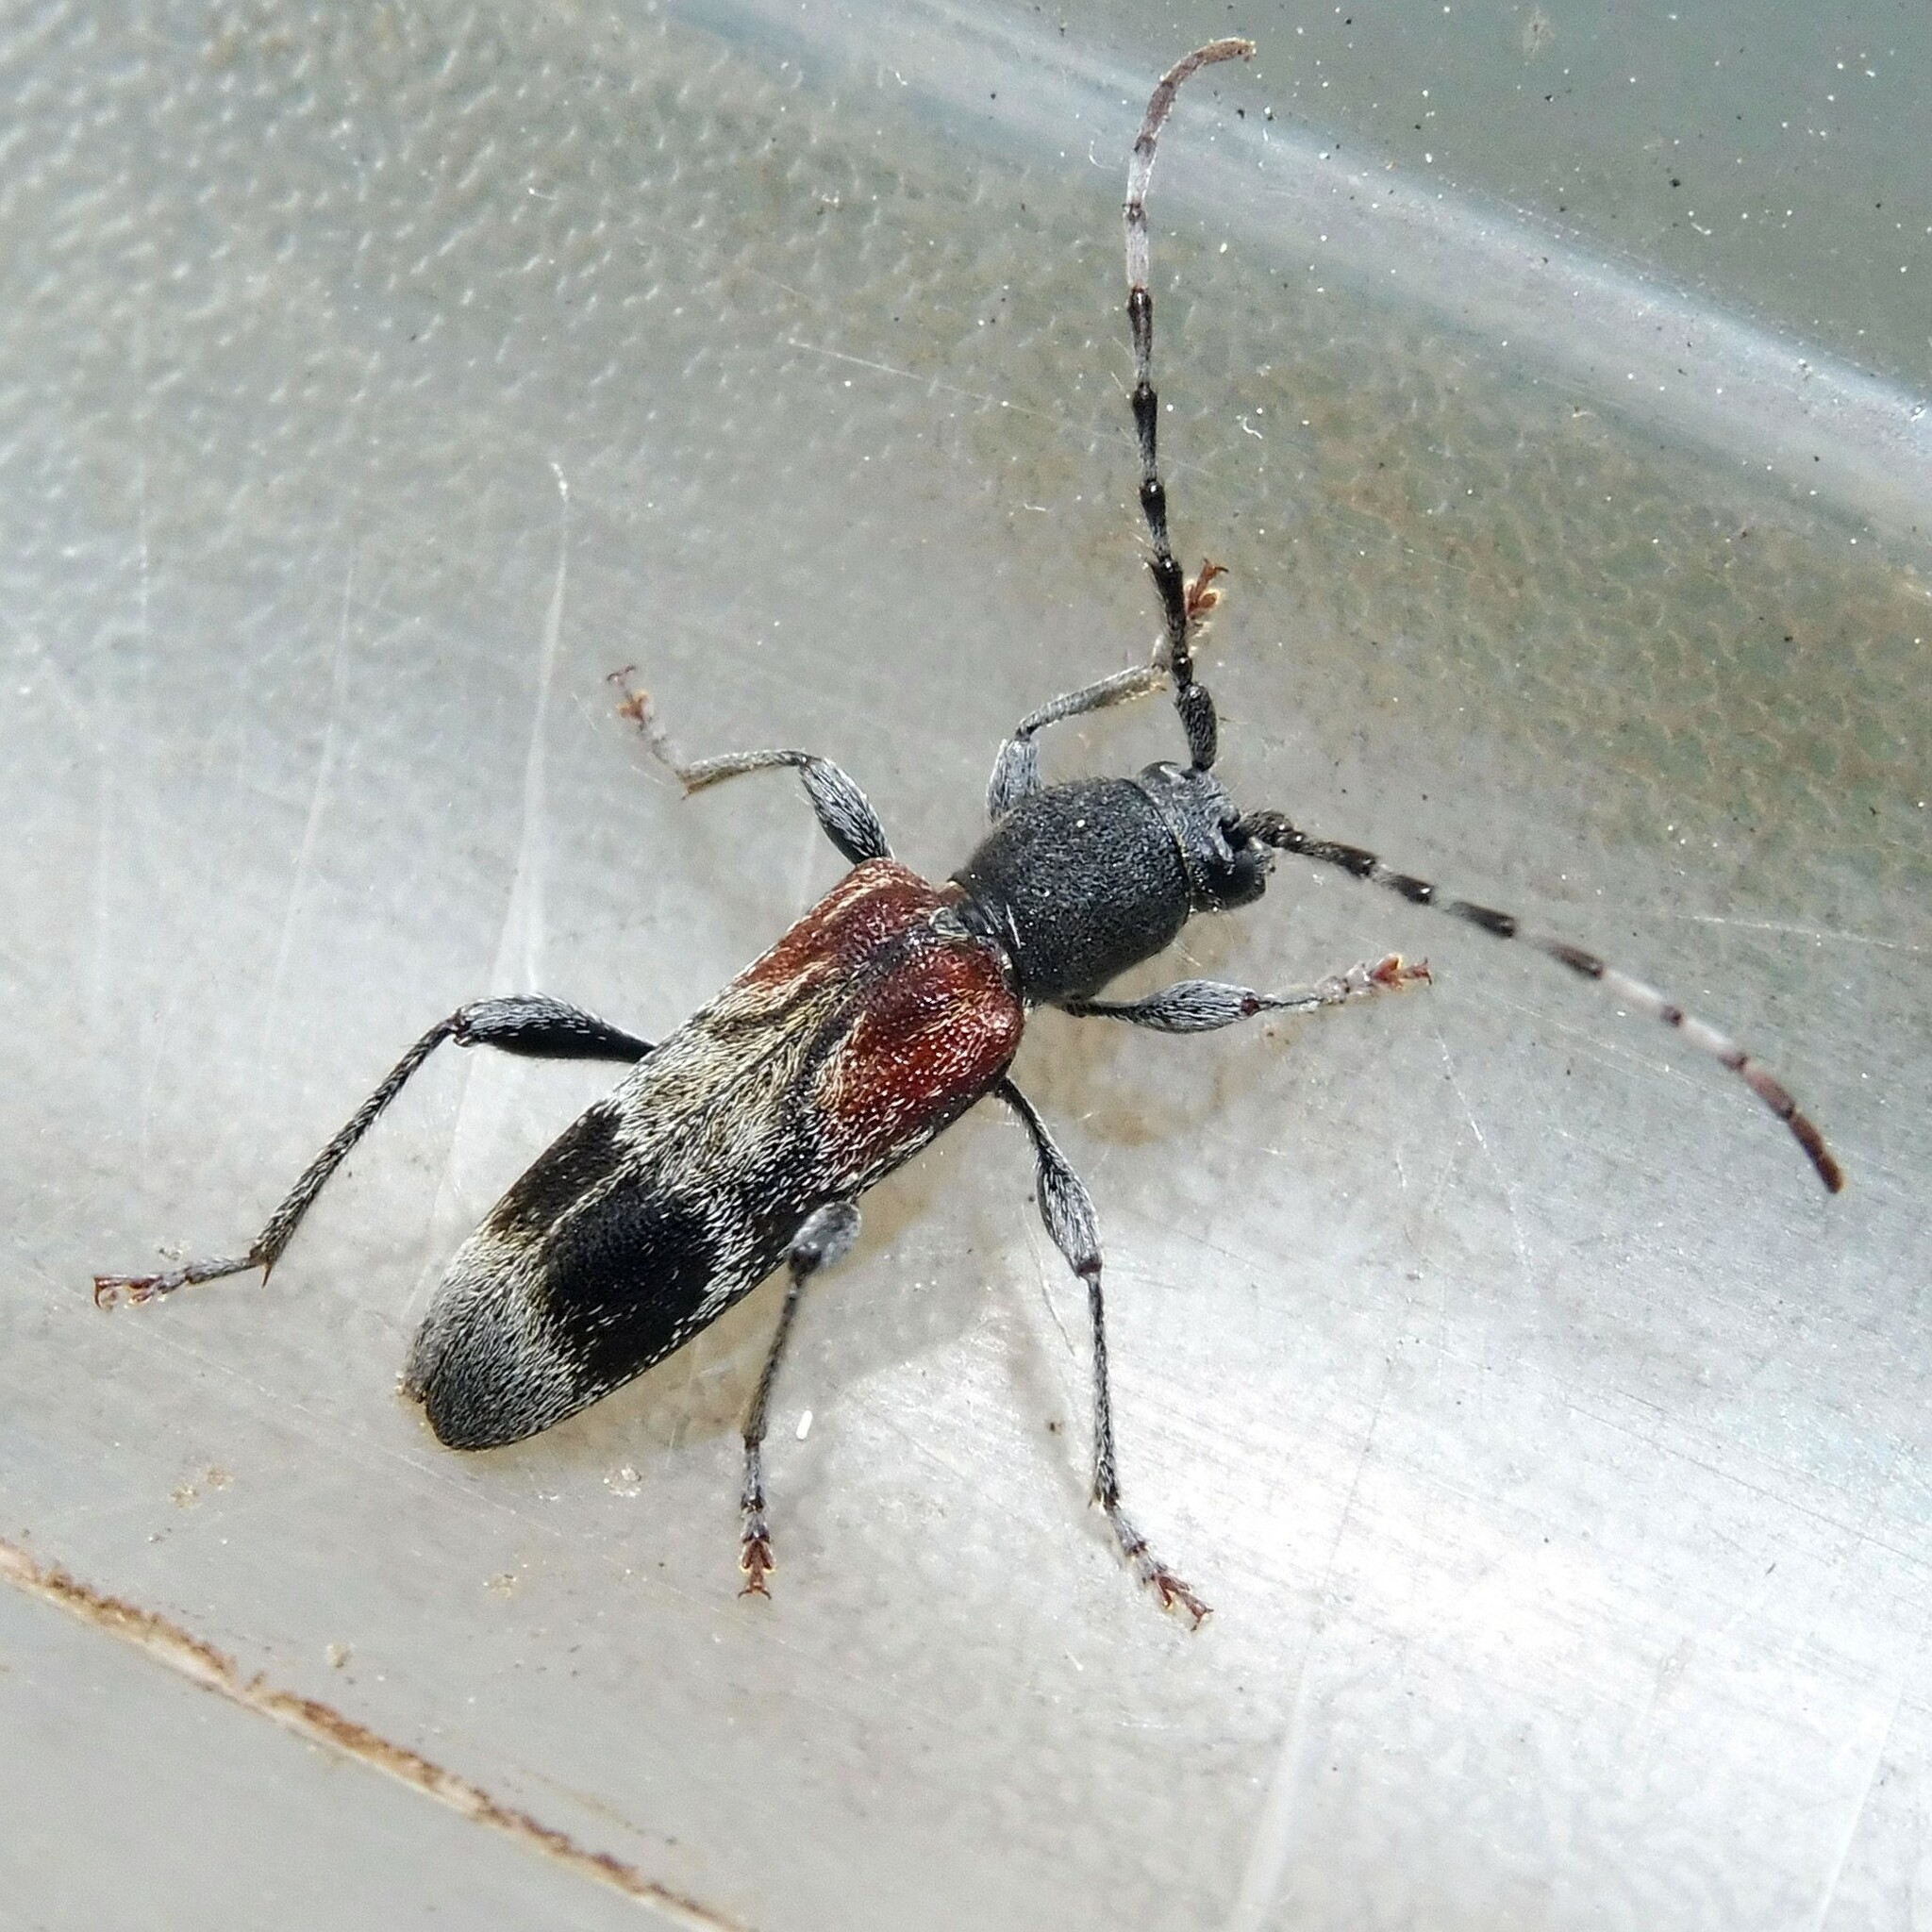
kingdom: Animalia
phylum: Arthropoda
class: Insecta
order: Coleoptera
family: Cerambycidae
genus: Anaglyptus
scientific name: Anaglyptus mysticus
